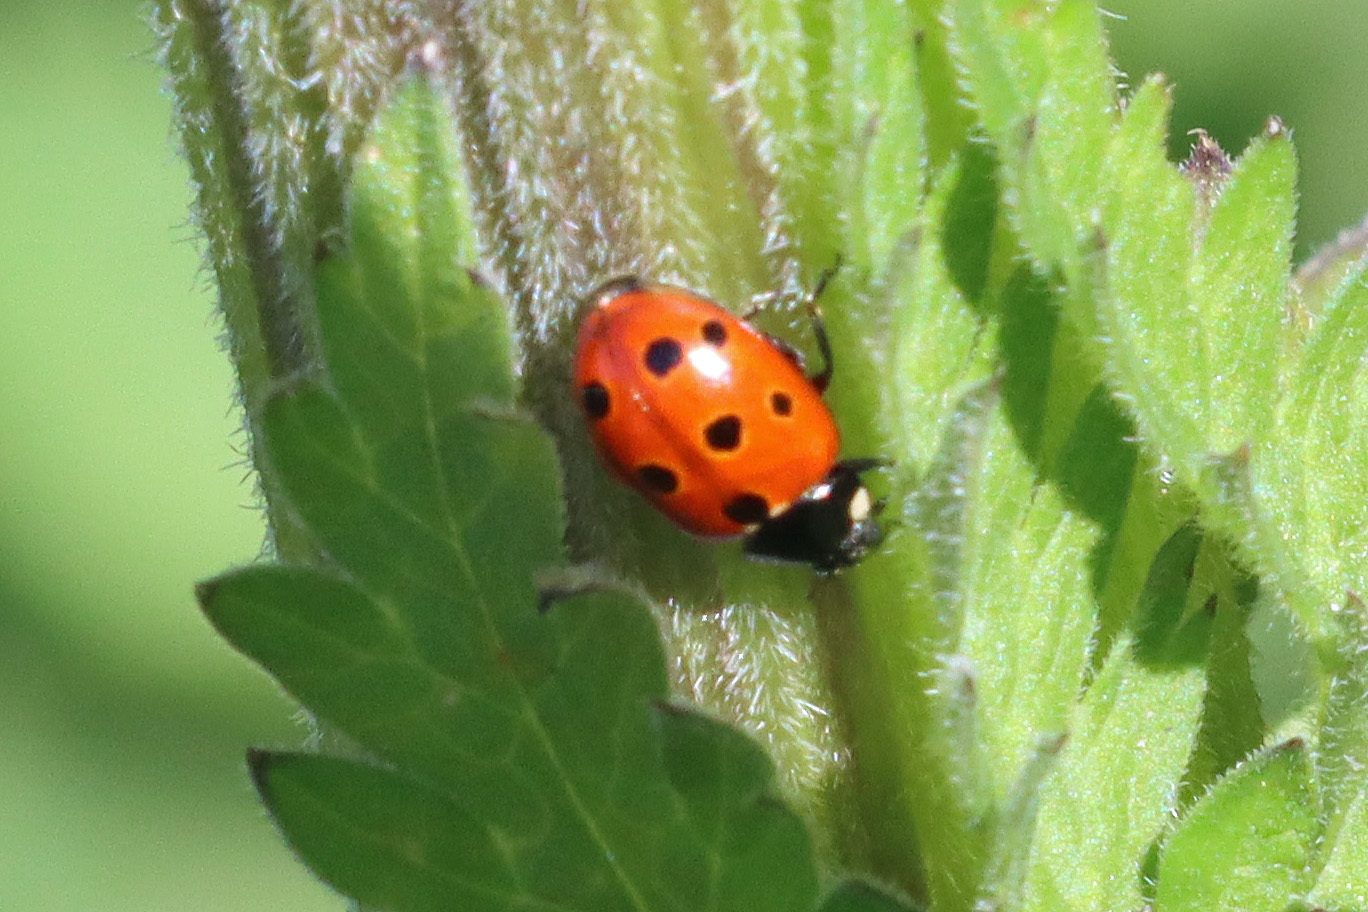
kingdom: Animalia
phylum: Arthropoda
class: Insecta
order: Coleoptera
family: Coccinellidae
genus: Coccinella
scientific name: Coccinella undecimpunctata
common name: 11-spot ladybird
